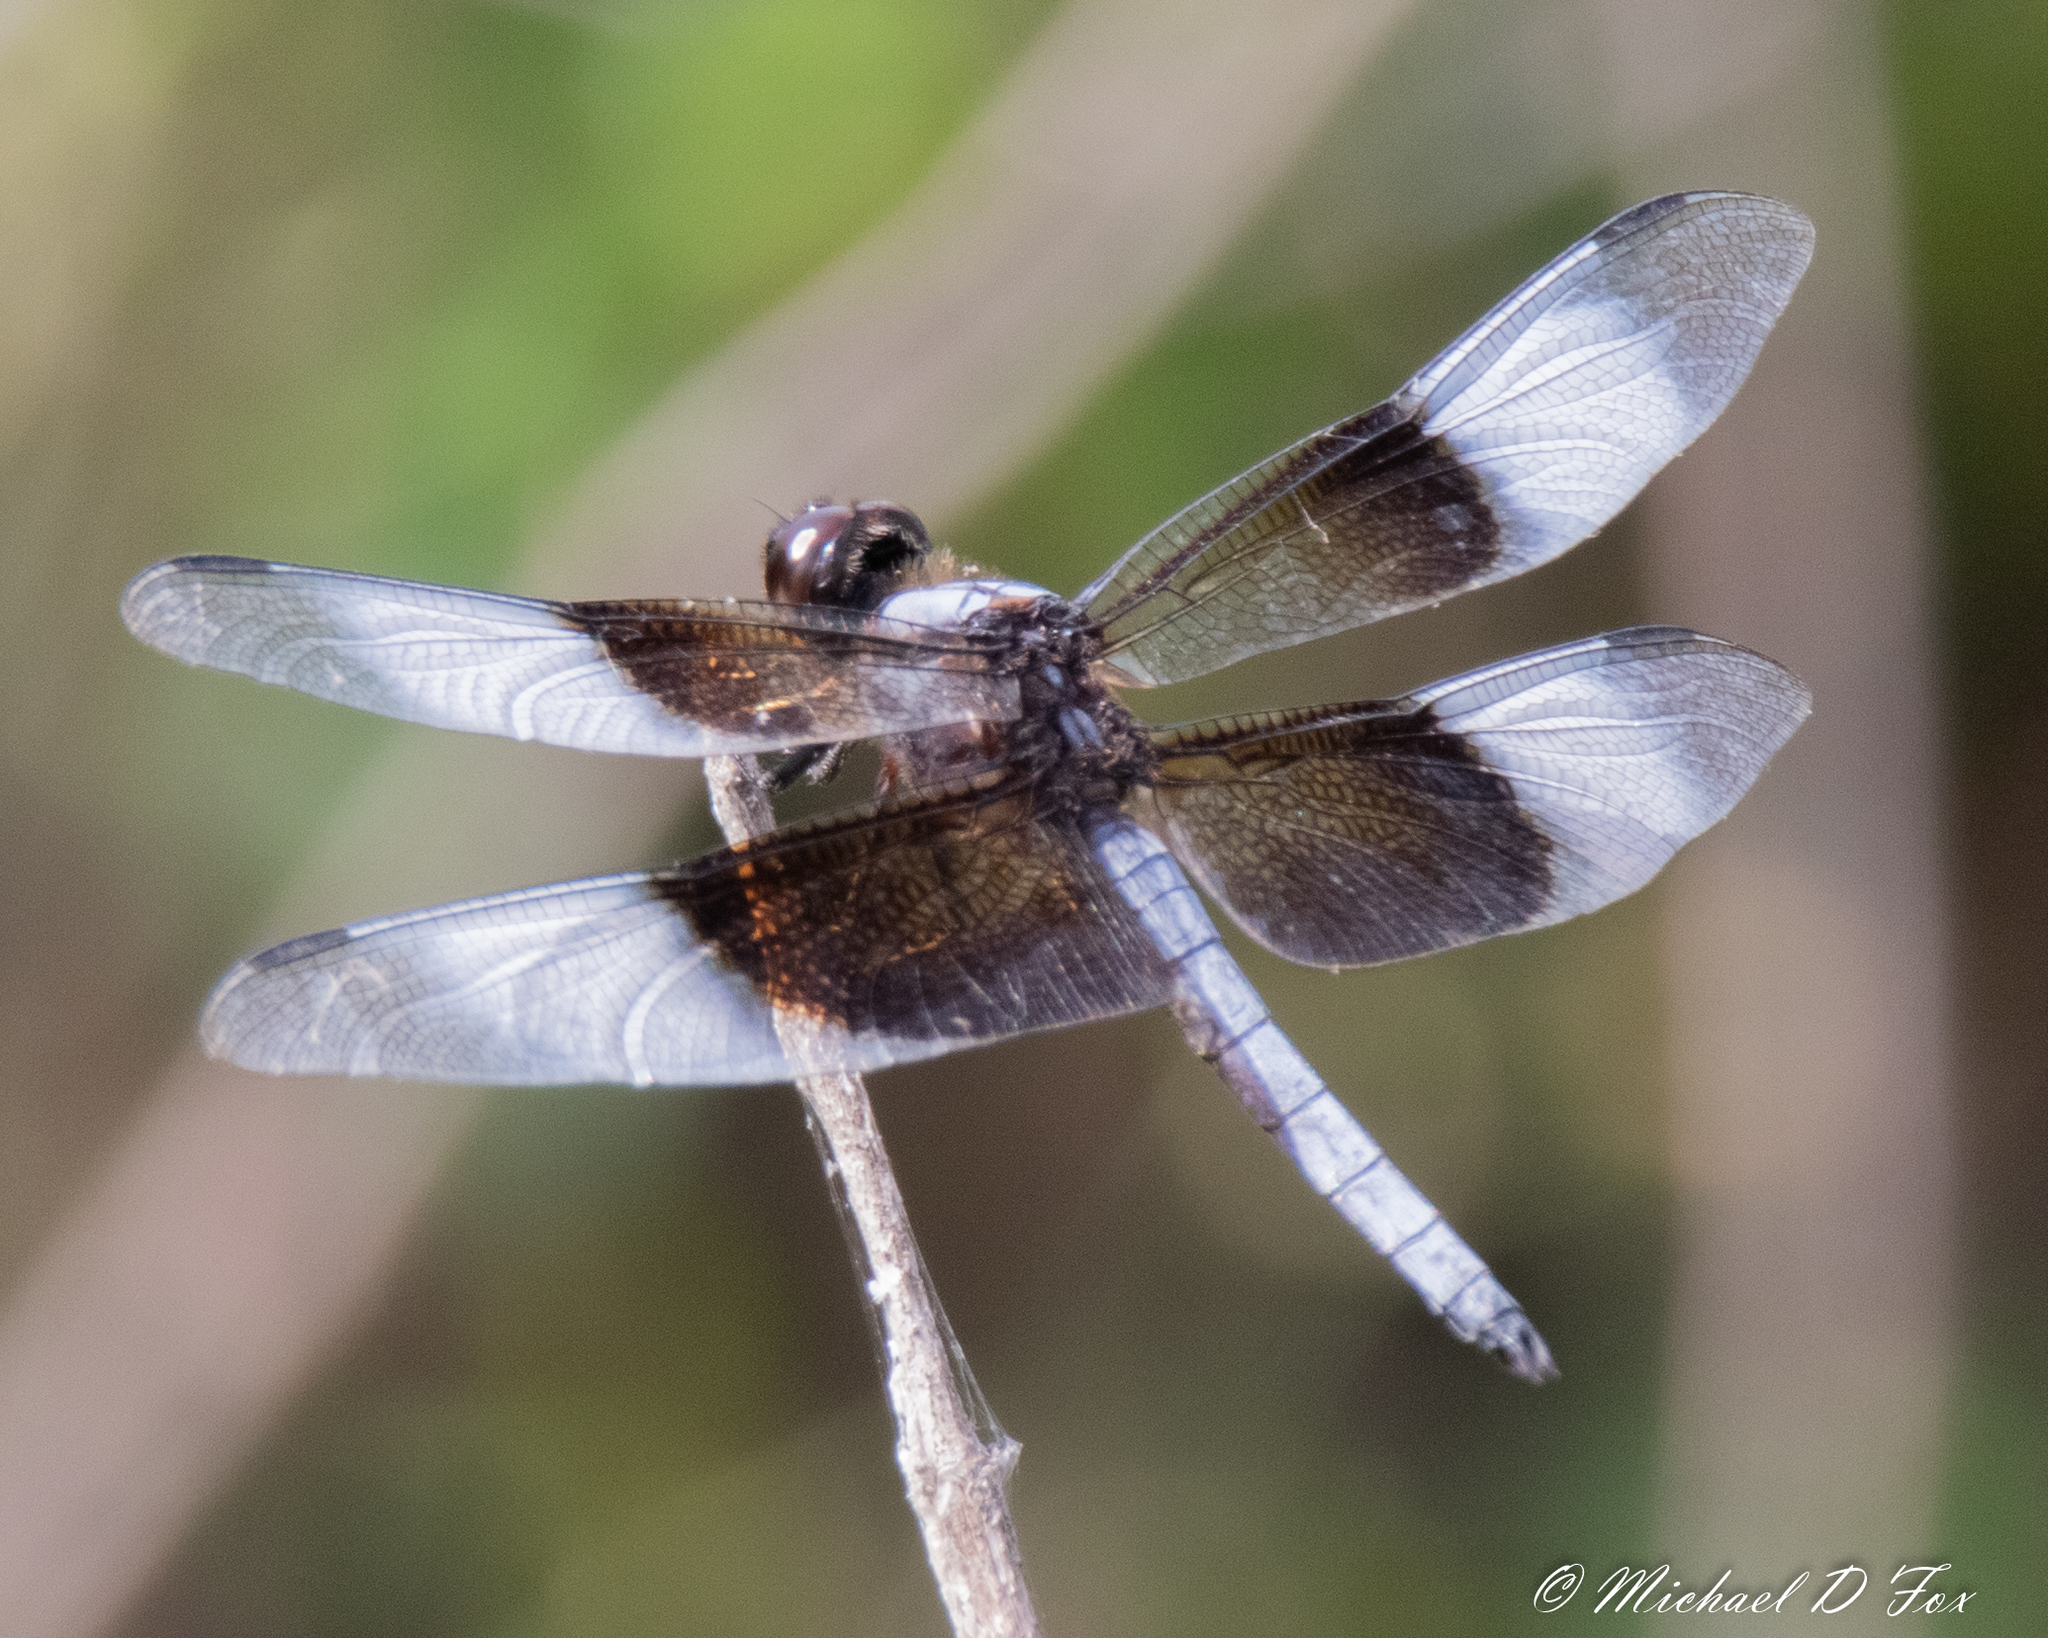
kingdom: Animalia
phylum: Arthropoda
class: Insecta
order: Odonata
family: Libellulidae
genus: Libellula
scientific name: Libellula luctuosa
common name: Widow skimmer
